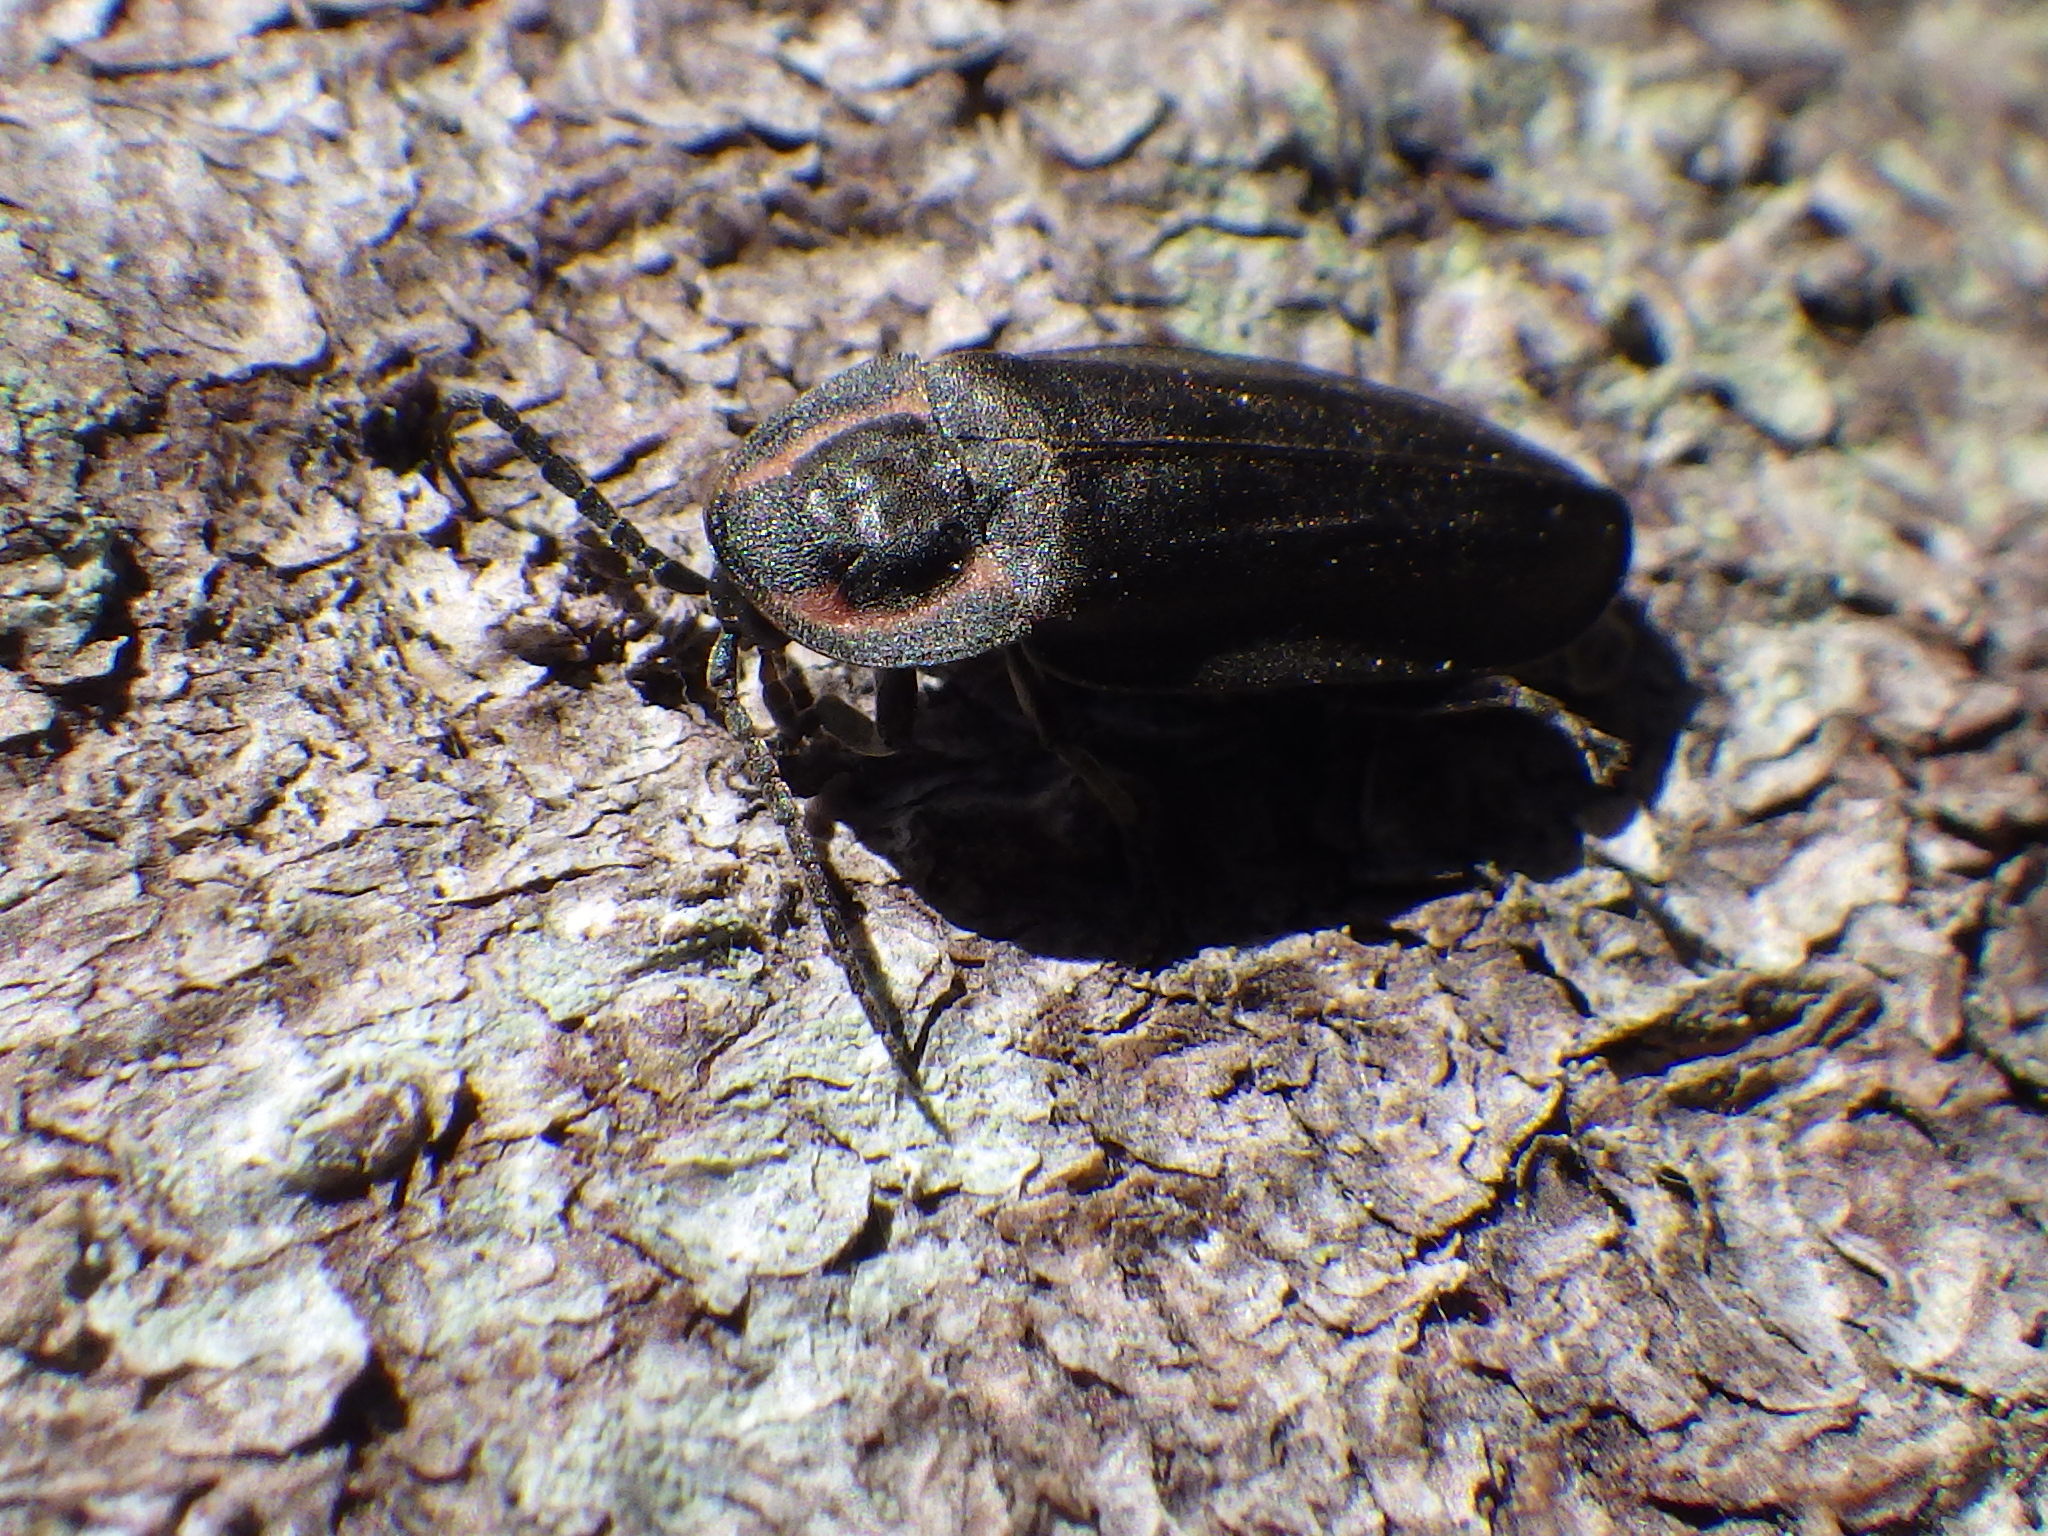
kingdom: Animalia
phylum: Arthropoda
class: Insecta
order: Coleoptera
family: Lampyridae
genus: Photinus
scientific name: Photinus corrusca
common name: Winter firefly
